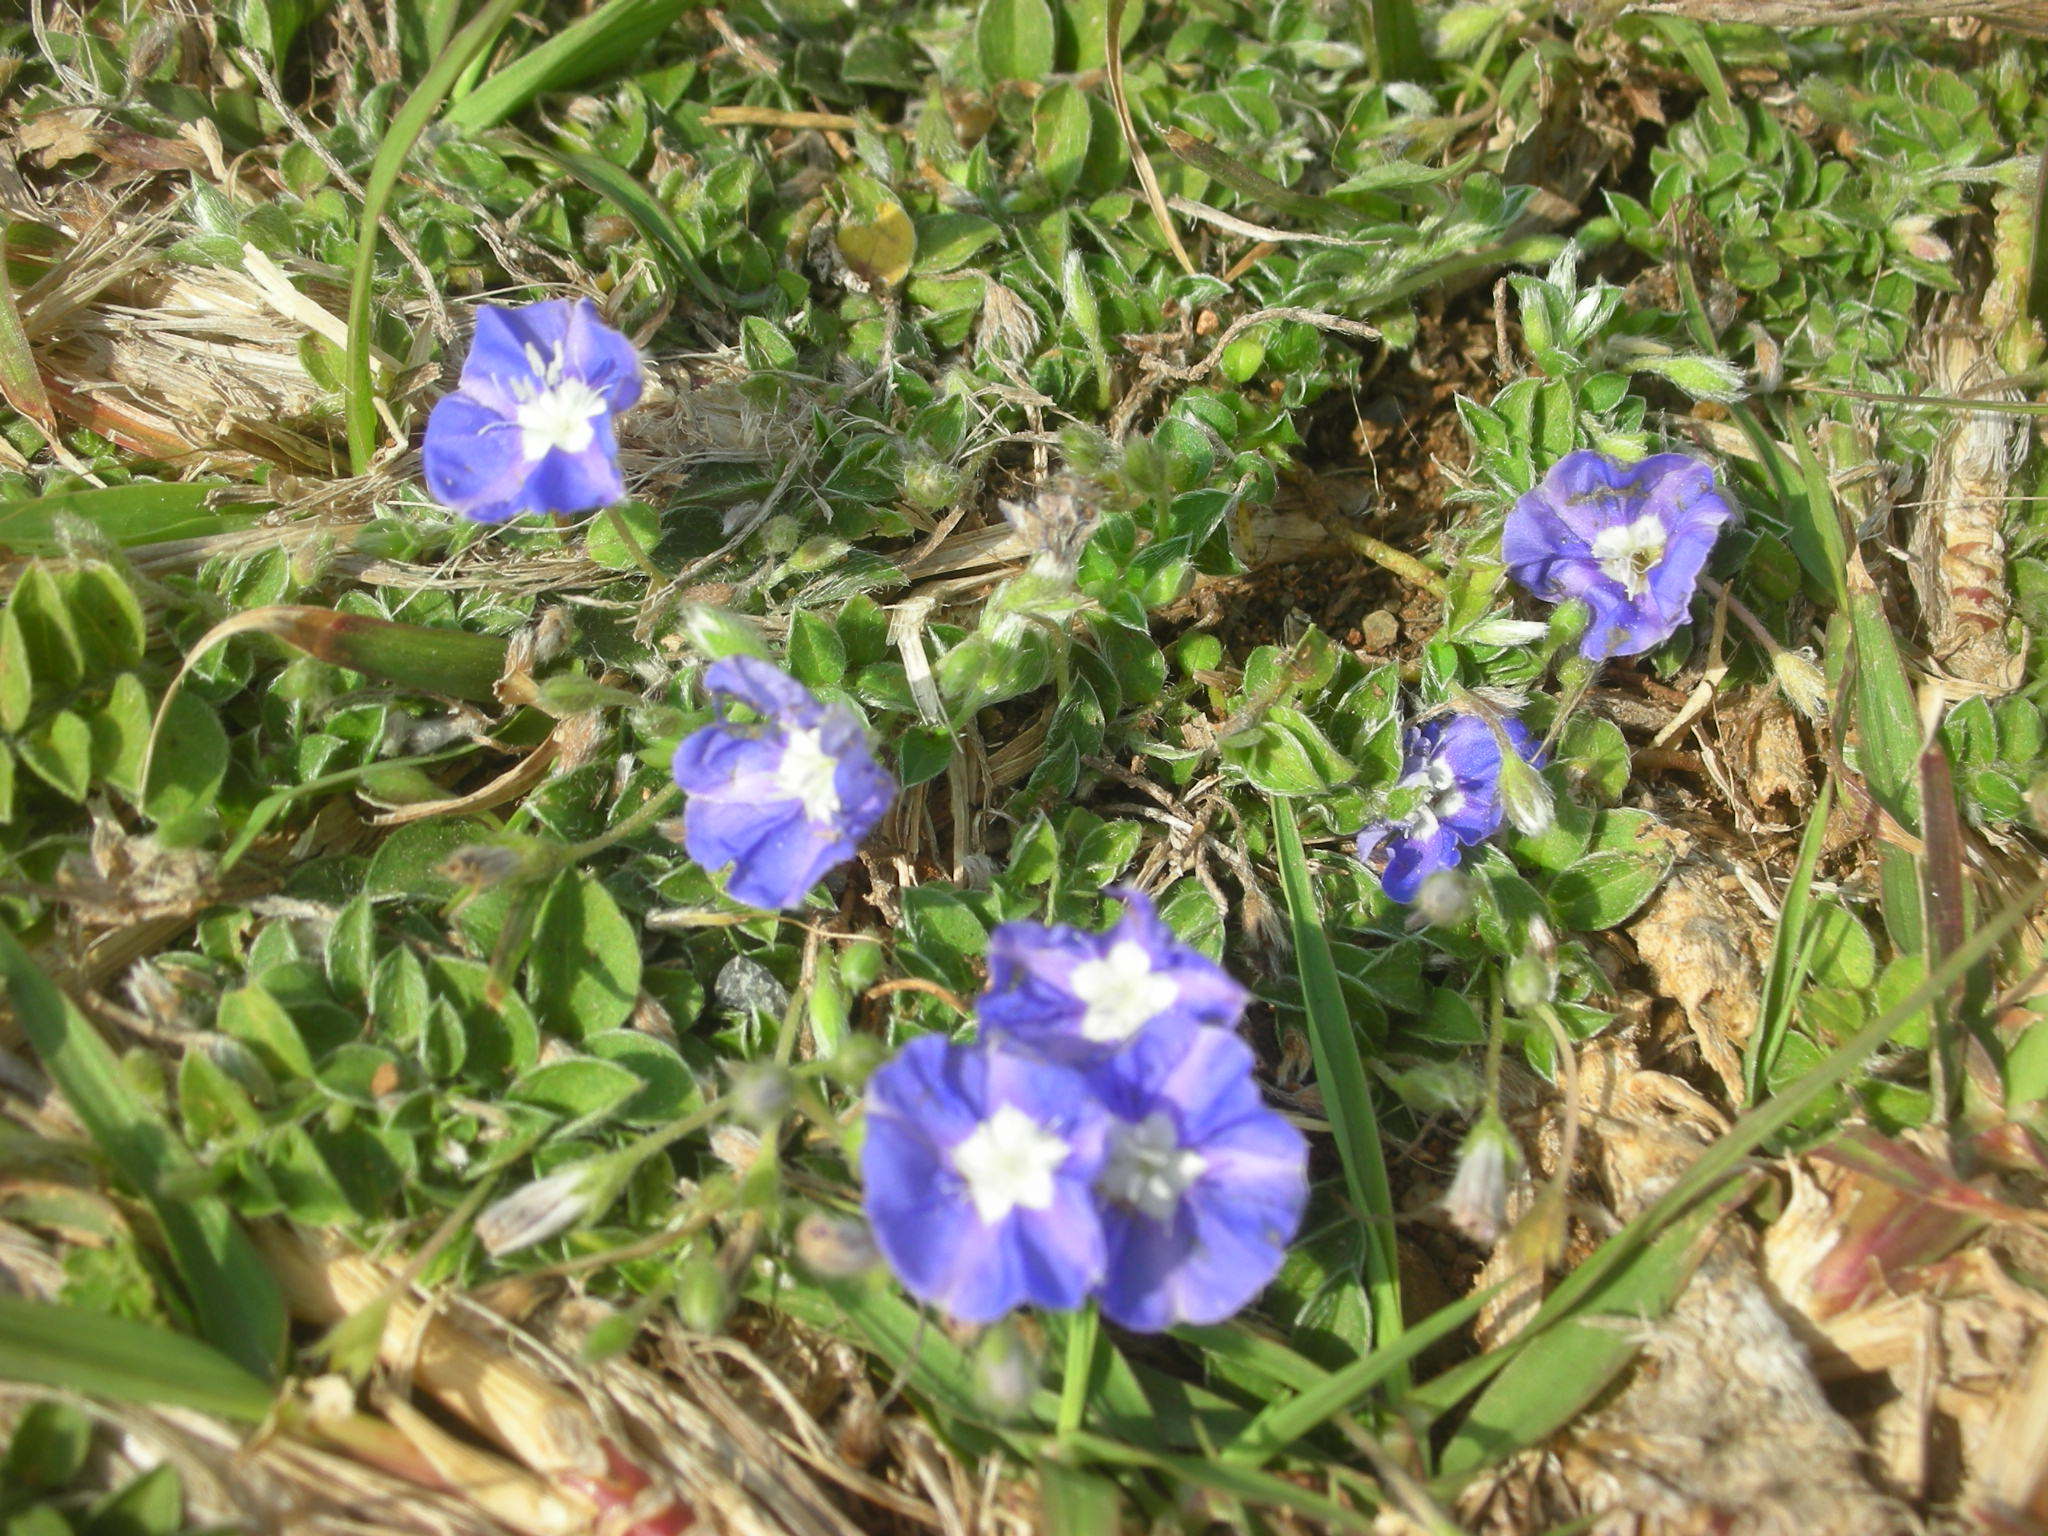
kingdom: Plantae
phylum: Tracheophyta
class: Magnoliopsida
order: Solanales
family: Convolvulaceae
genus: Evolvulus
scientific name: Evolvulus alsinoides
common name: Slender dwarf morning-glory
